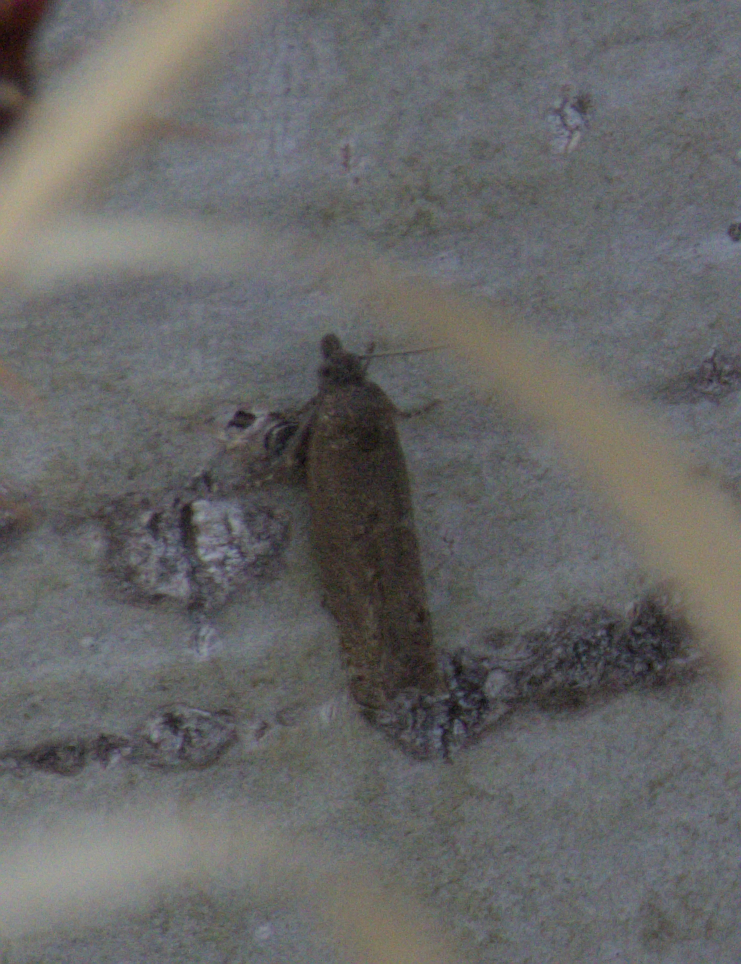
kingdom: Animalia
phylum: Arthropoda
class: Insecta
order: Lepidoptera
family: Tortricidae
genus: Pseudexentera
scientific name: Pseudexentera oregonana
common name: Early aspen leafcurler
